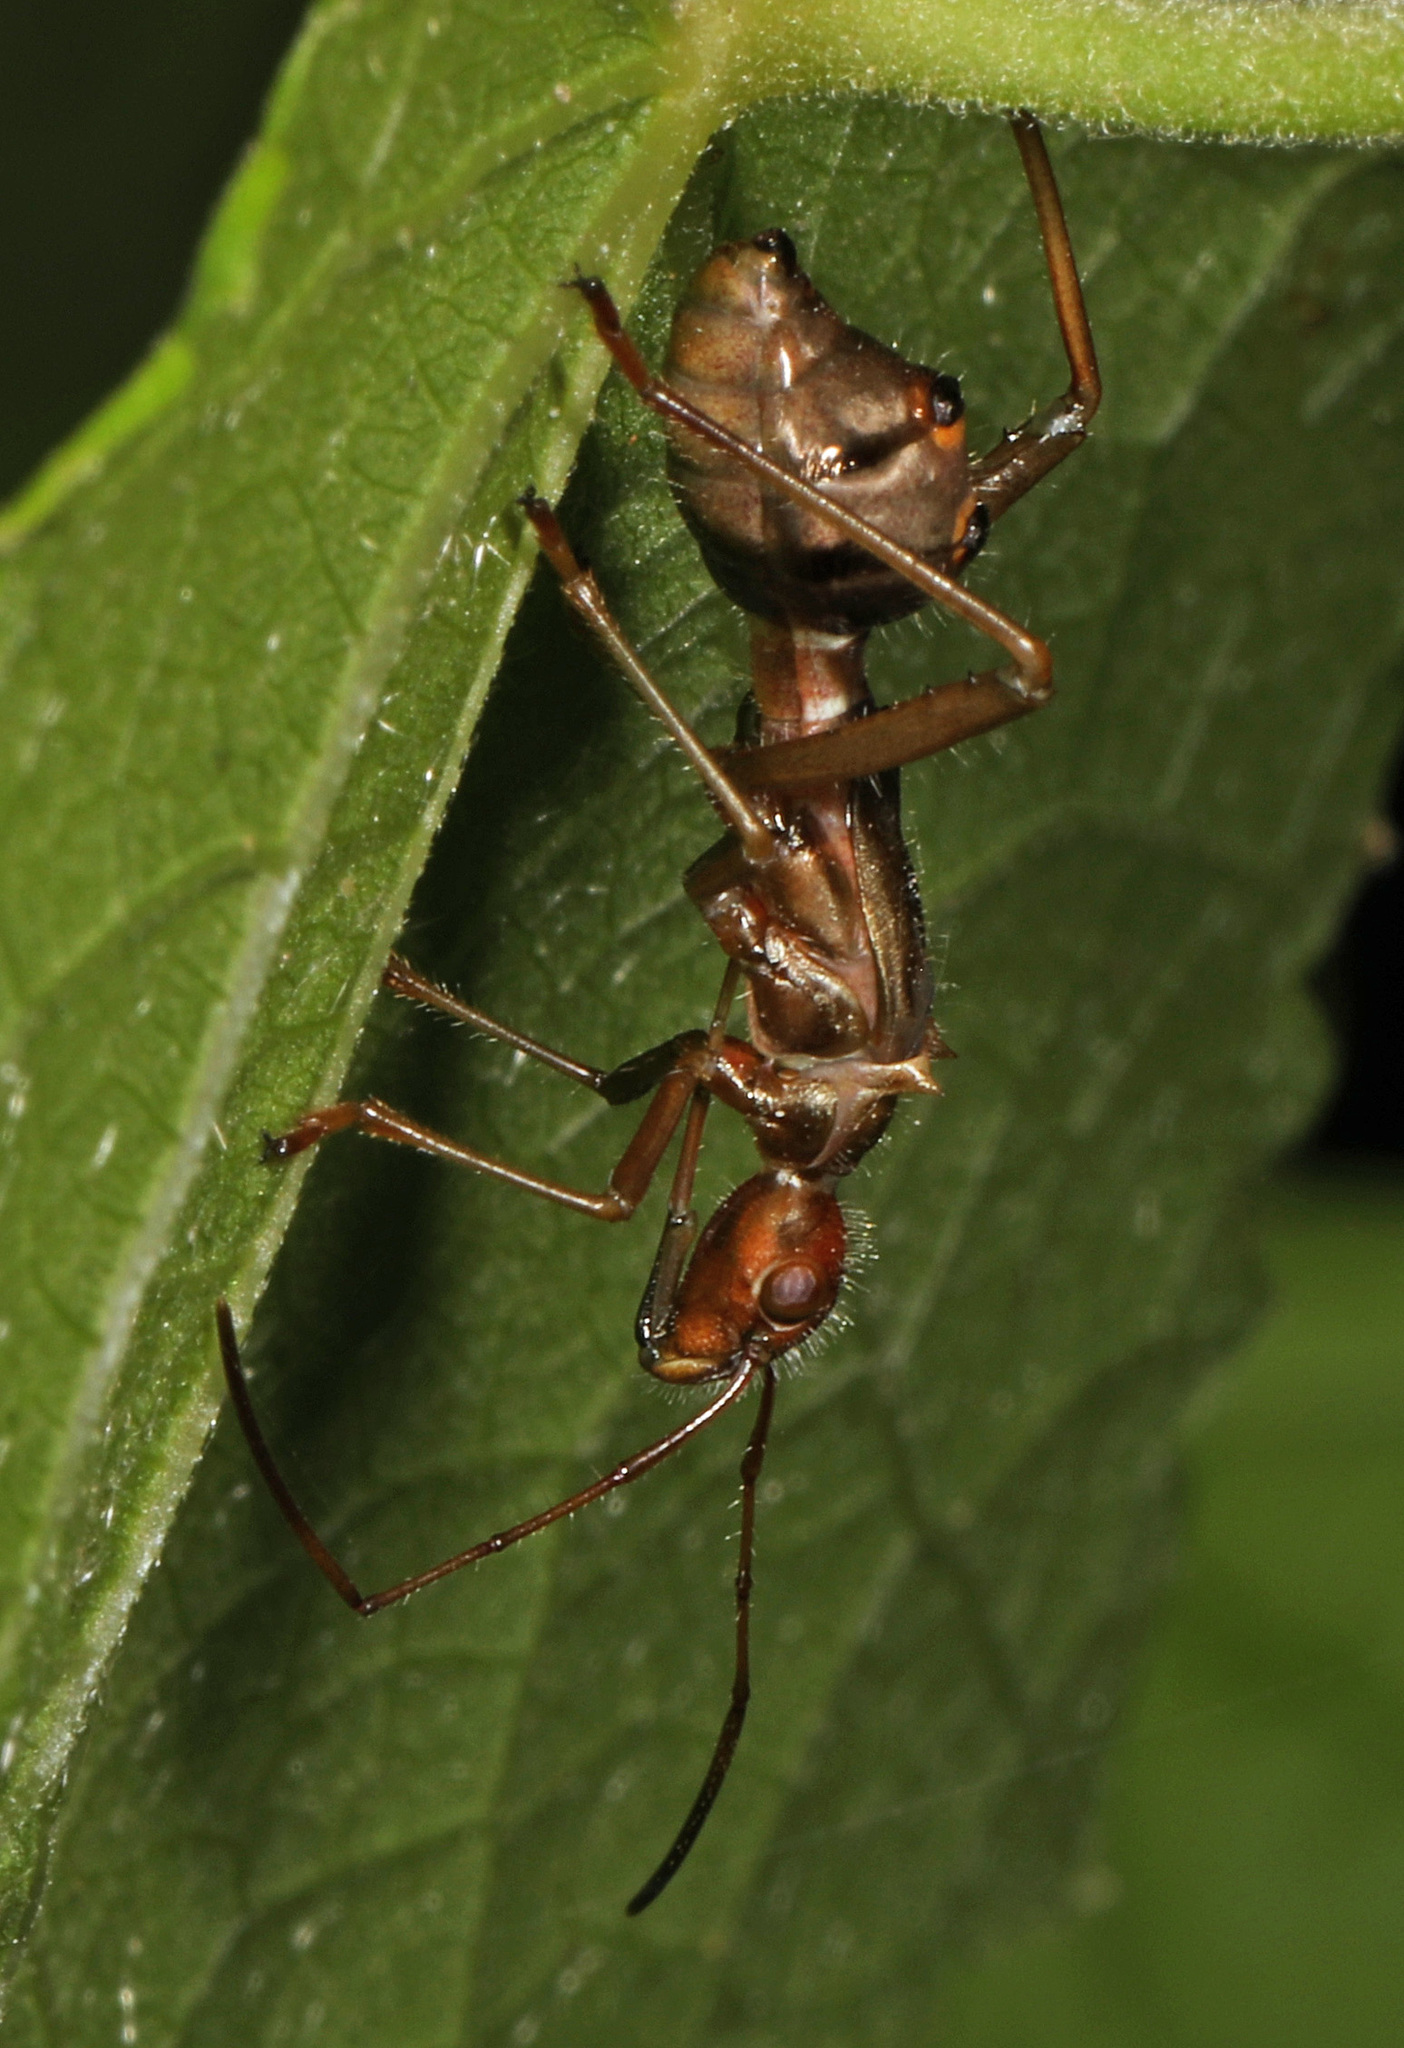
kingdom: Animalia
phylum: Arthropoda
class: Insecta
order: Hemiptera
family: Alydidae
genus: Hyalymenus
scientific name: Hyalymenus tarsatus
